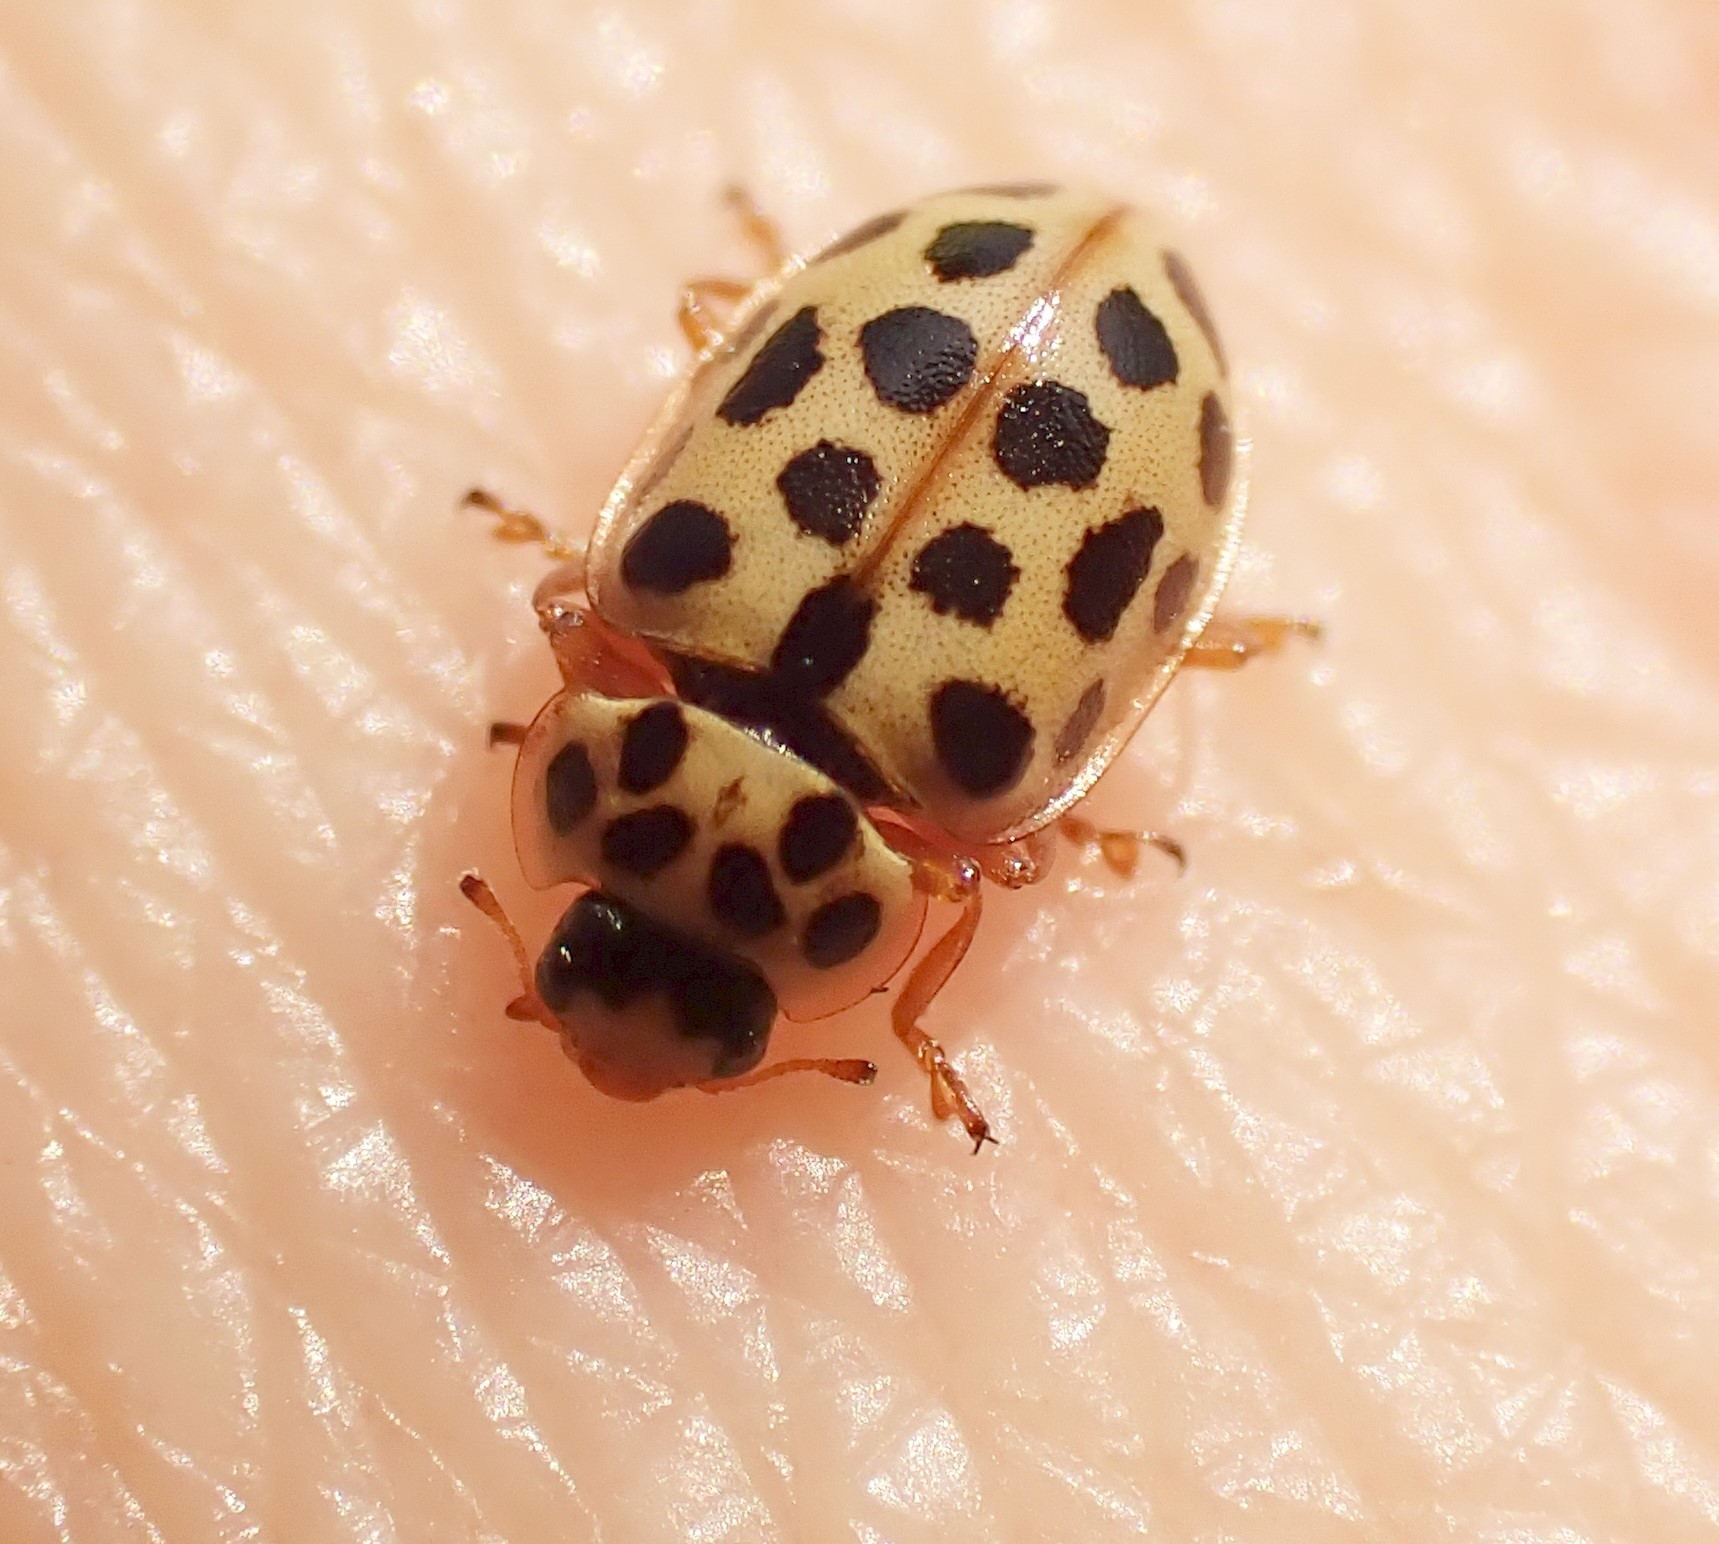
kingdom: Animalia
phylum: Arthropoda
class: Insecta
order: Coleoptera
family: Coccinellidae
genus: Anisosticta
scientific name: Anisosticta novemdecimpunctata
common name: Water ladybird
